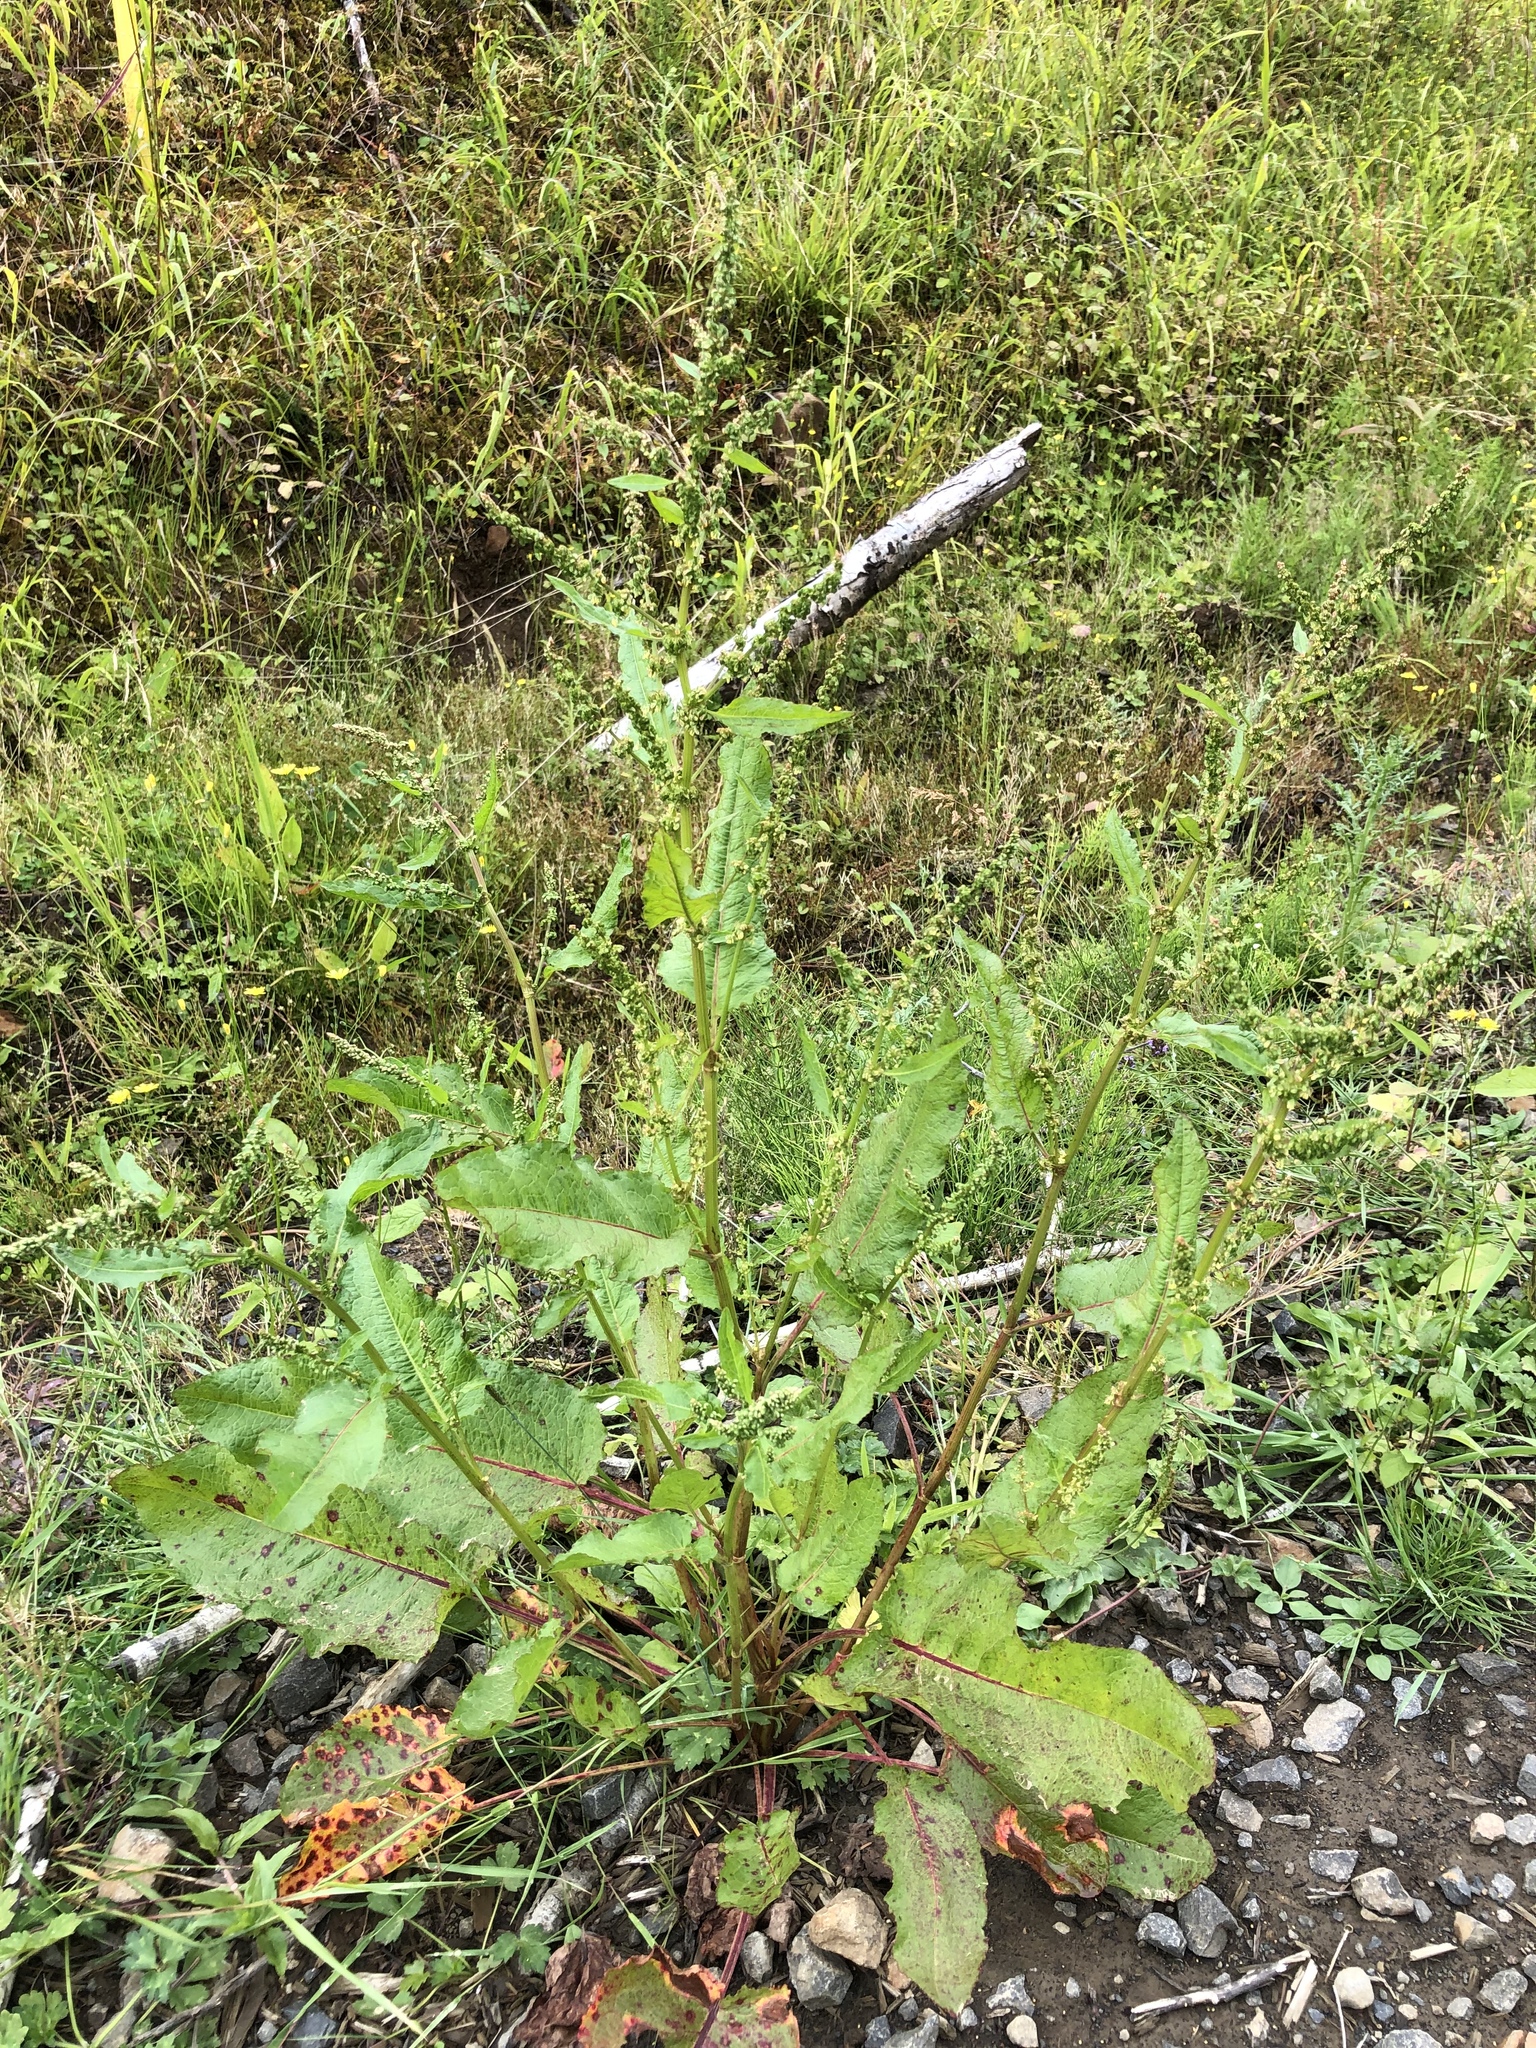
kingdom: Plantae
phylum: Tracheophyta
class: Magnoliopsida
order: Caryophyllales
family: Polygonaceae
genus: Rumex
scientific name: Rumex crispus
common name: Curled dock
